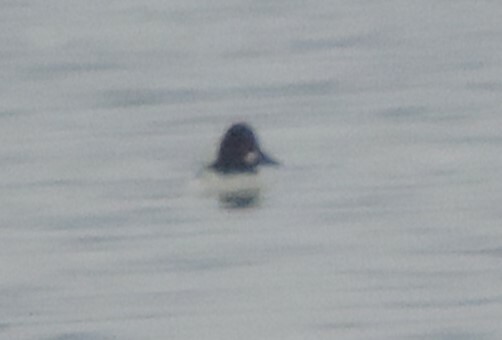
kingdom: Animalia
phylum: Chordata
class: Aves
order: Anseriformes
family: Anatidae
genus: Bucephala
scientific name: Bucephala clangula
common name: Common goldeneye
